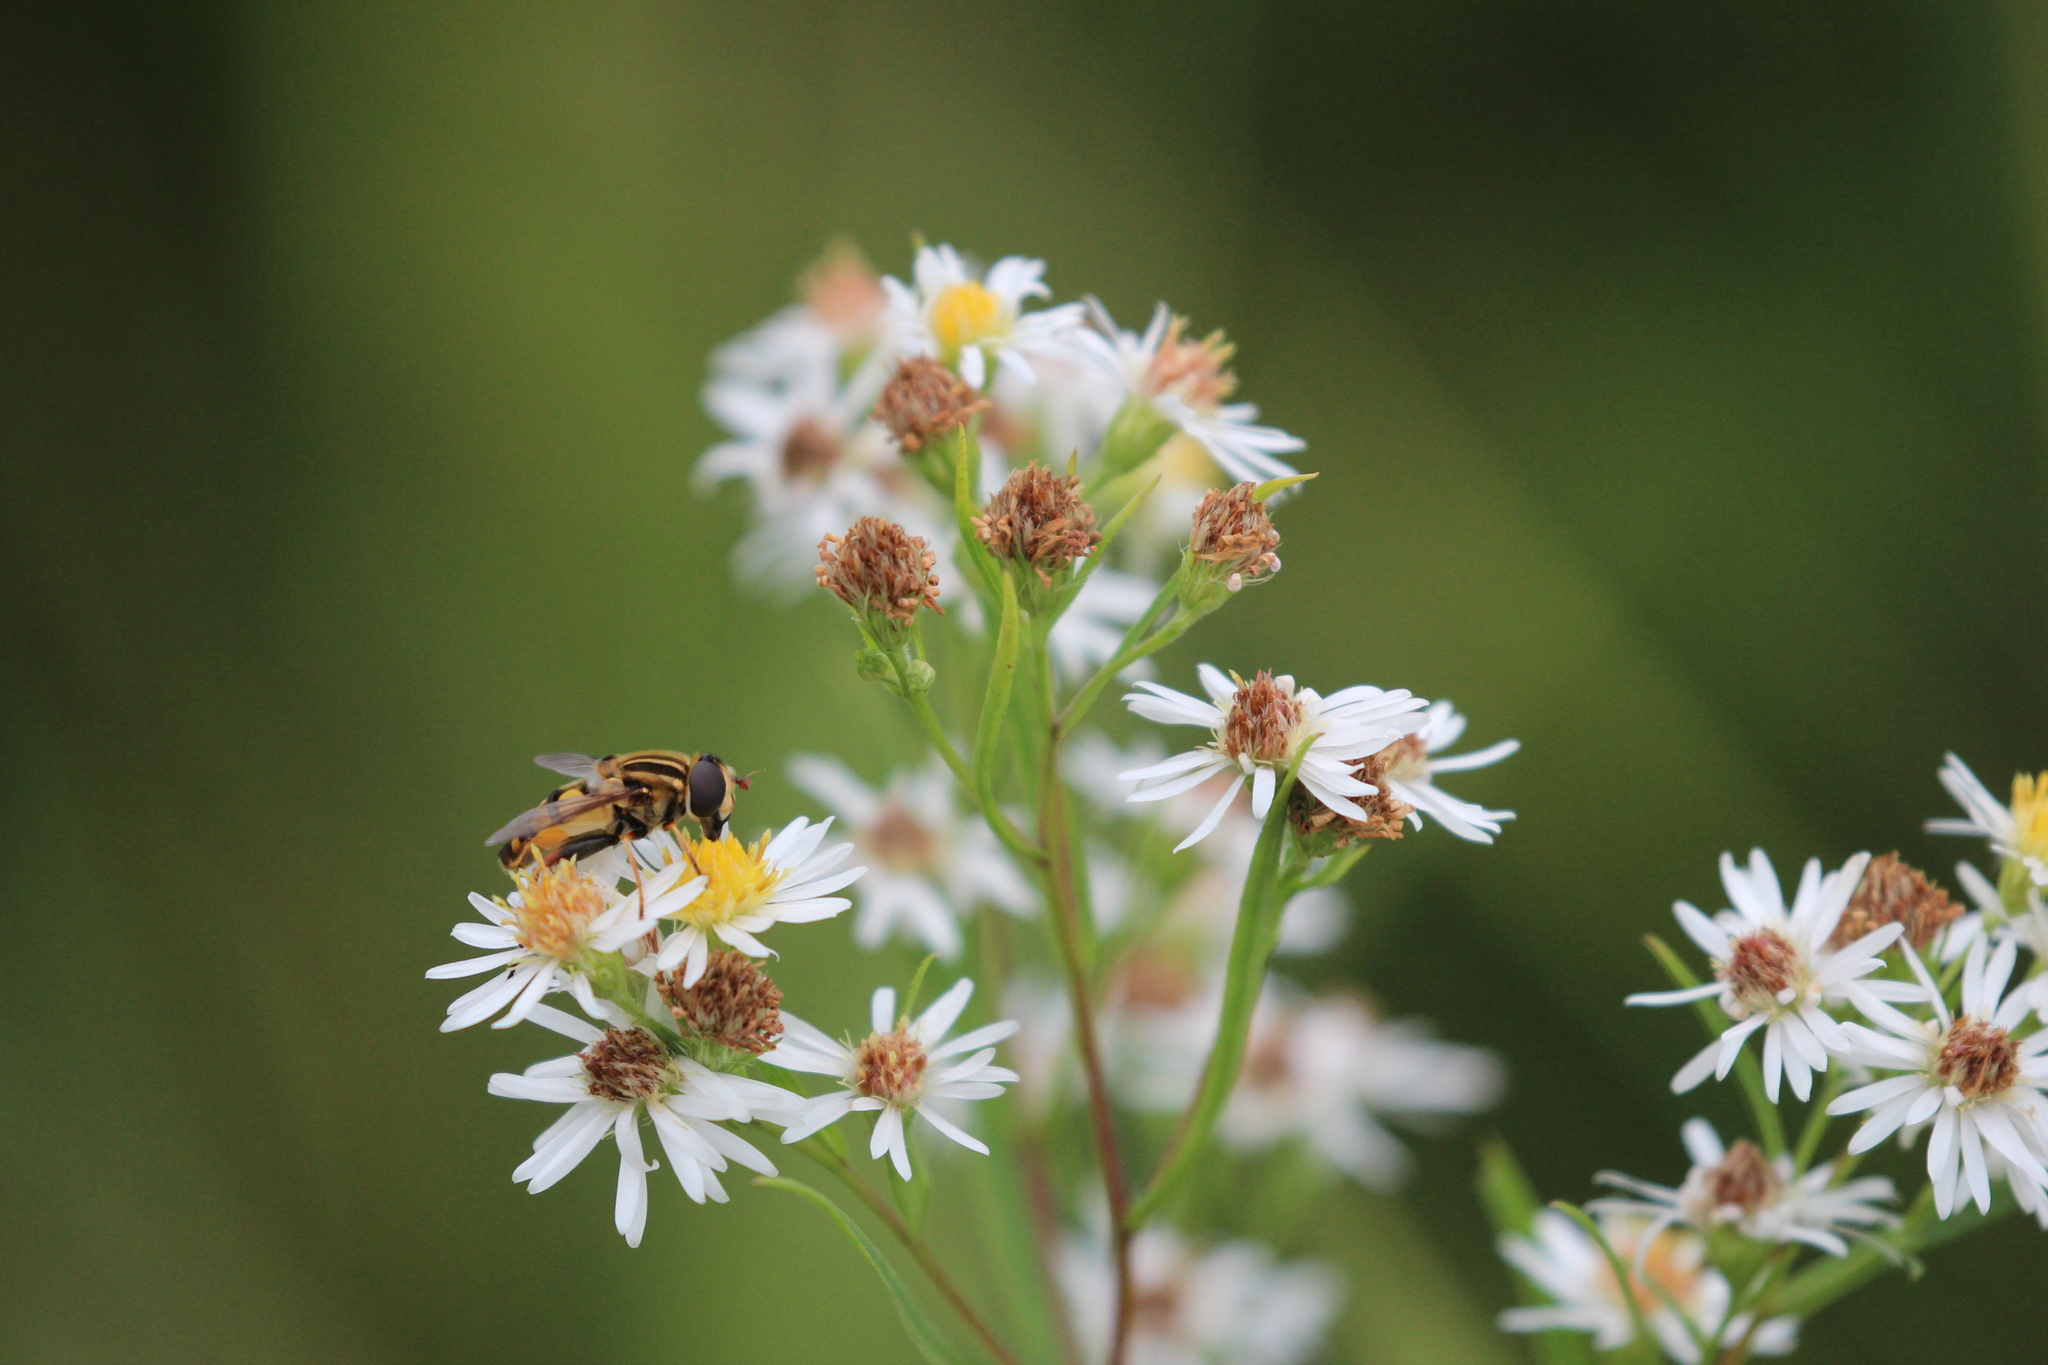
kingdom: Plantae
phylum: Tracheophyta
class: Magnoliopsida
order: Asterales
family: Asteraceae
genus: Symphyotrichum
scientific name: Symphyotrichum lanceolatum
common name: Panicled aster
